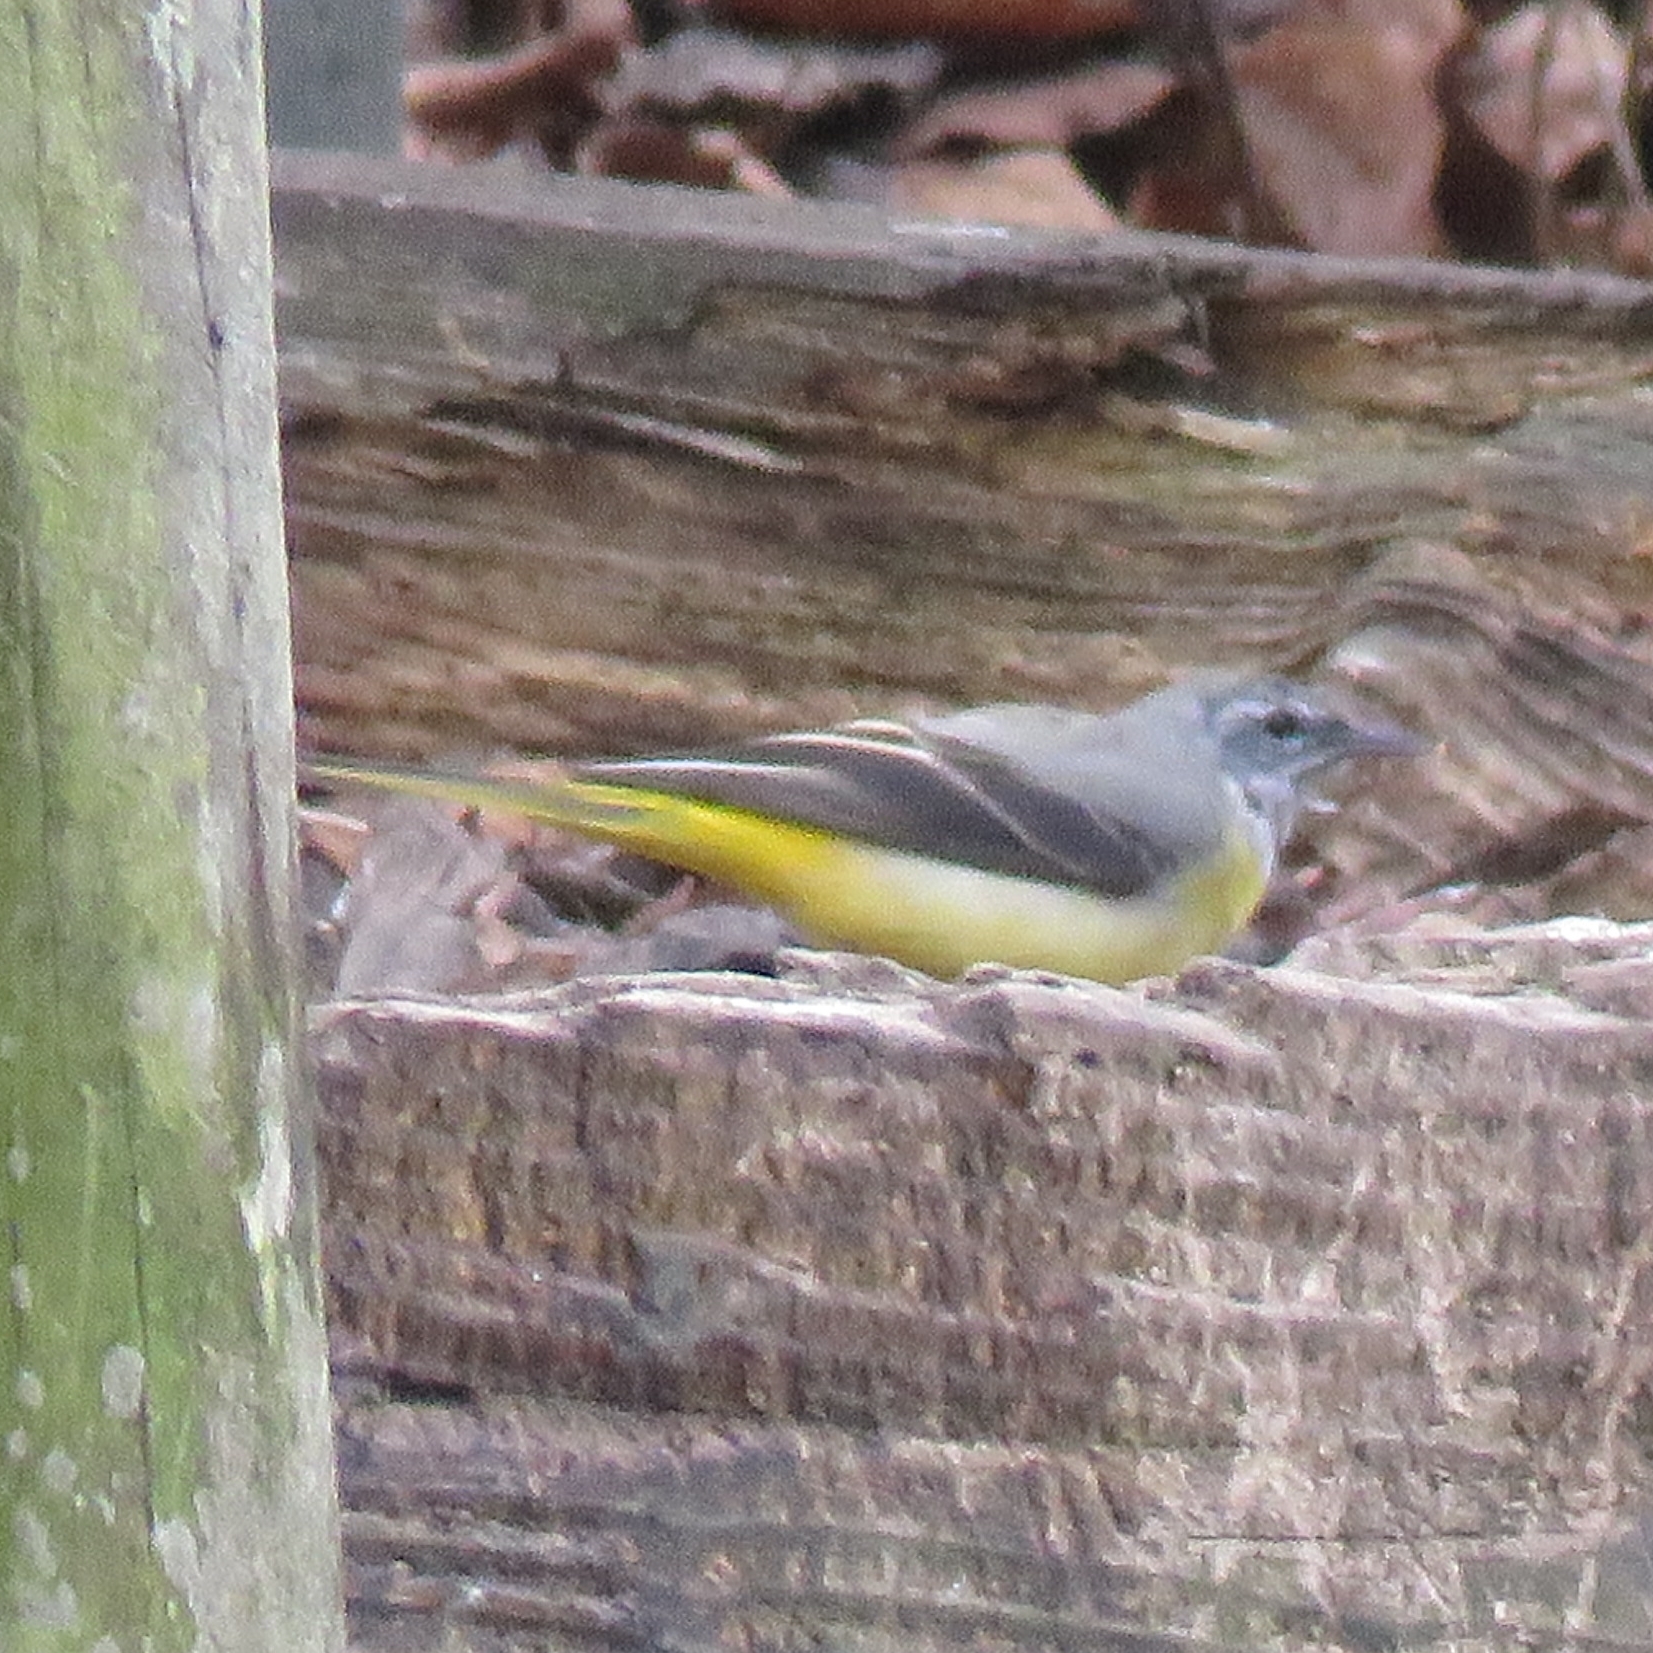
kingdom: Animalia
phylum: Chordata
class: Aves
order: Passeriformes
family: Motacillidae
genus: Motacilla
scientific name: Motacilla cinerea
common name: Grey wagtail
